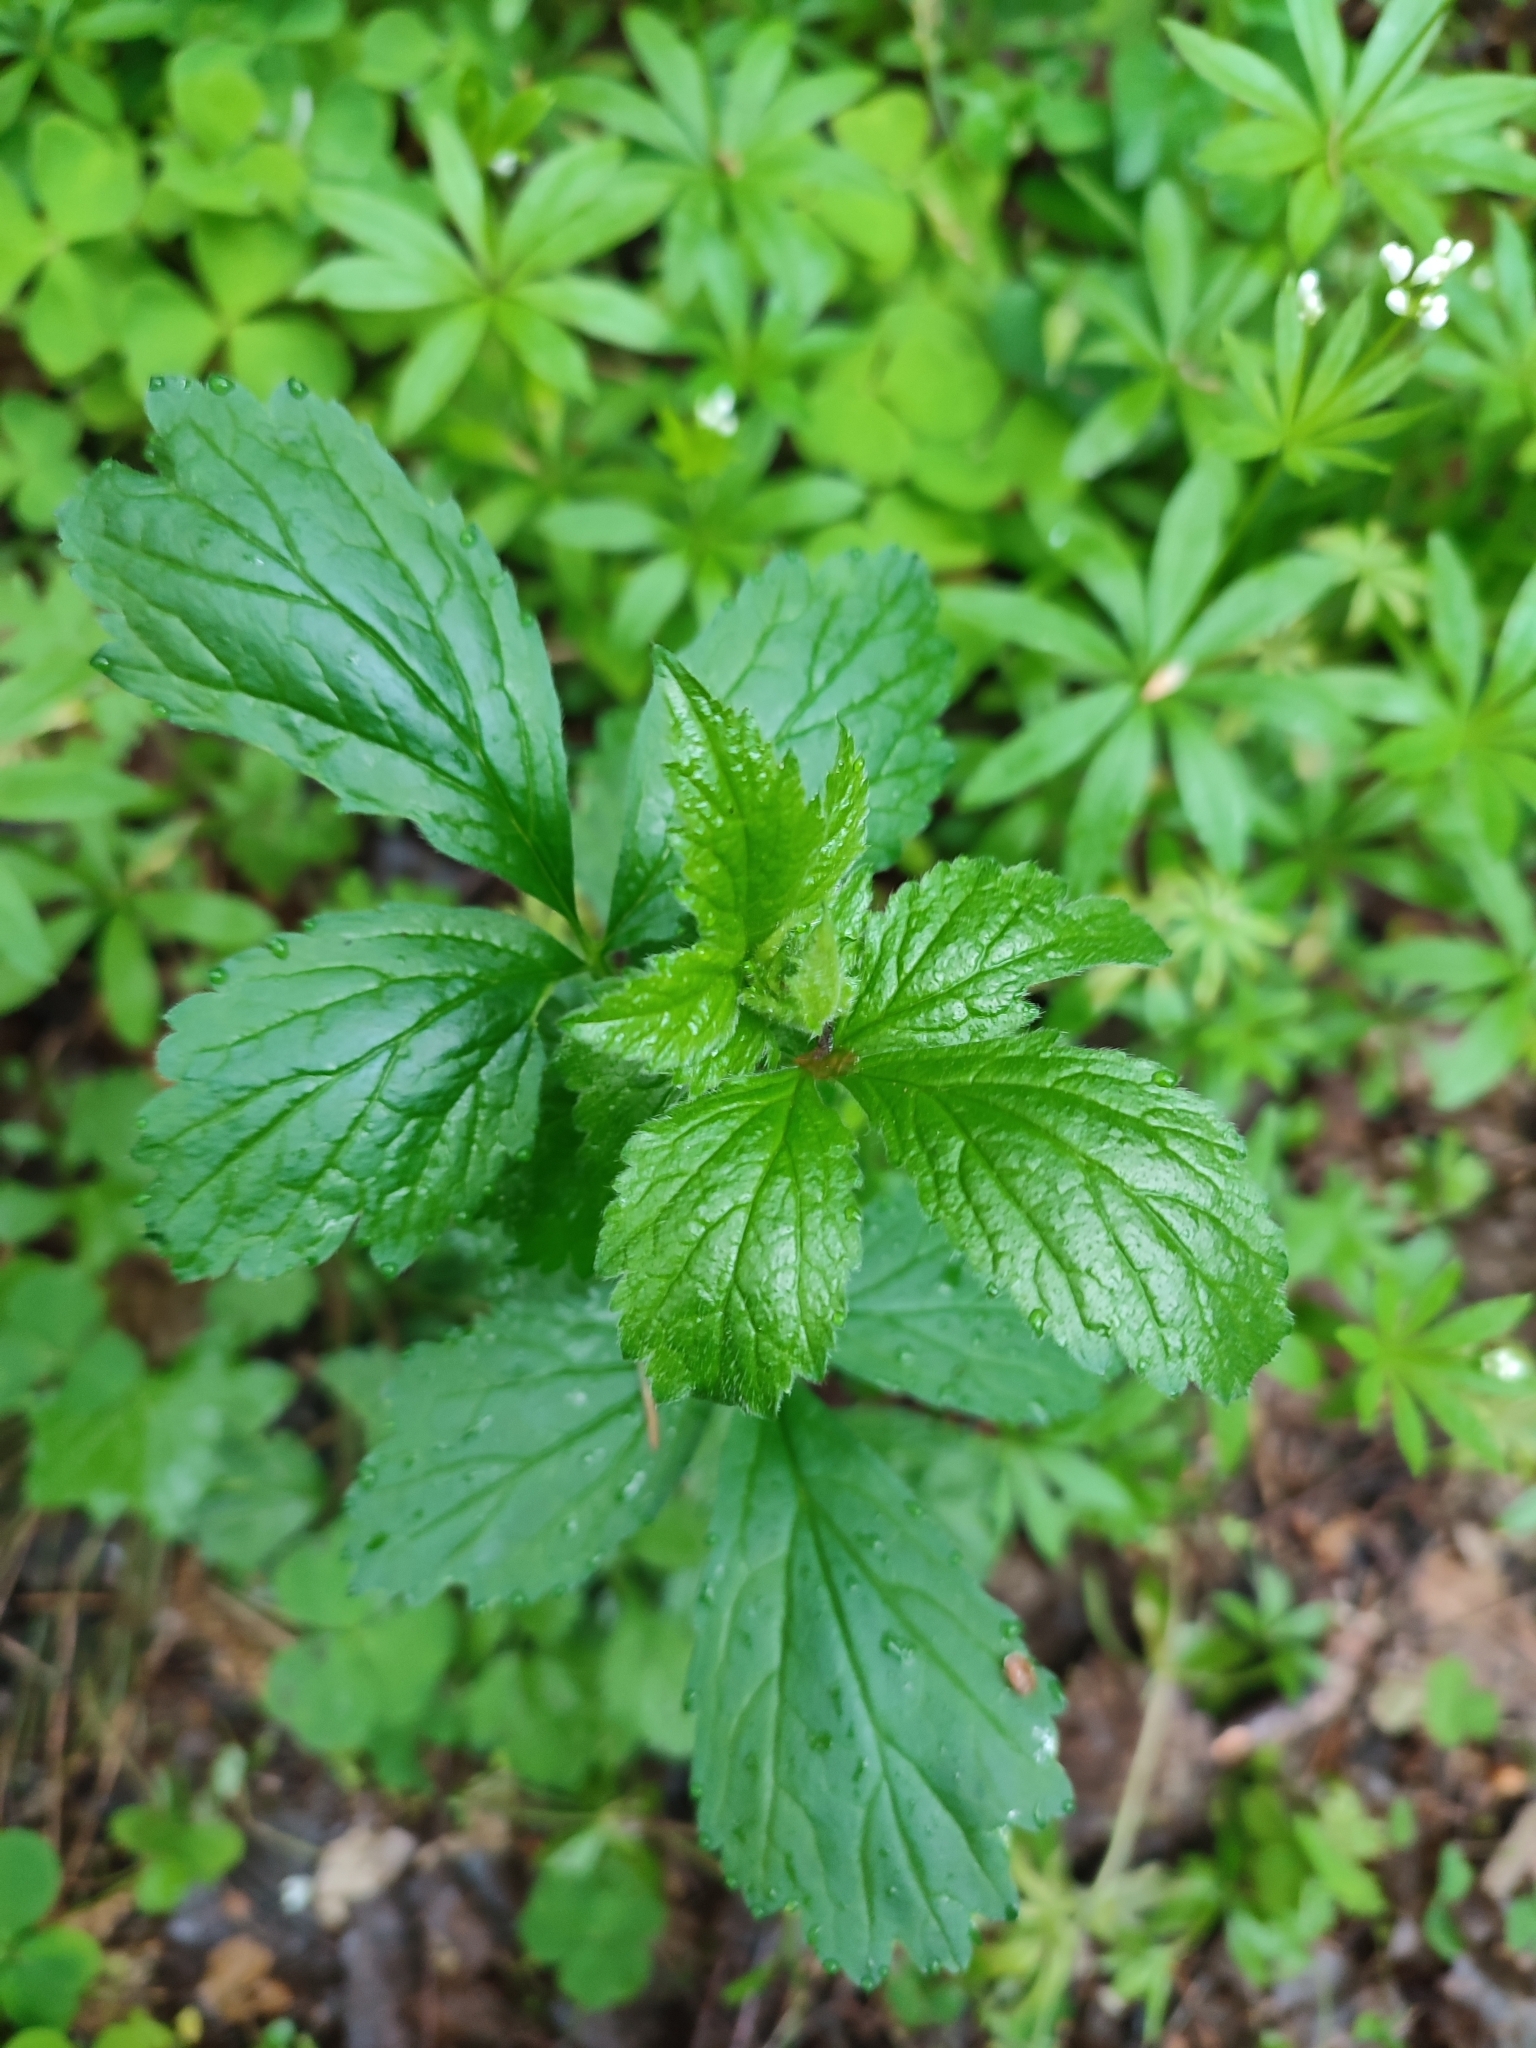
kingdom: Plantae
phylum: Tracheophyta
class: Magnoliopsida
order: Rosales
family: Rosaceae
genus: Geum
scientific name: Geum urbanum
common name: Wood avens
